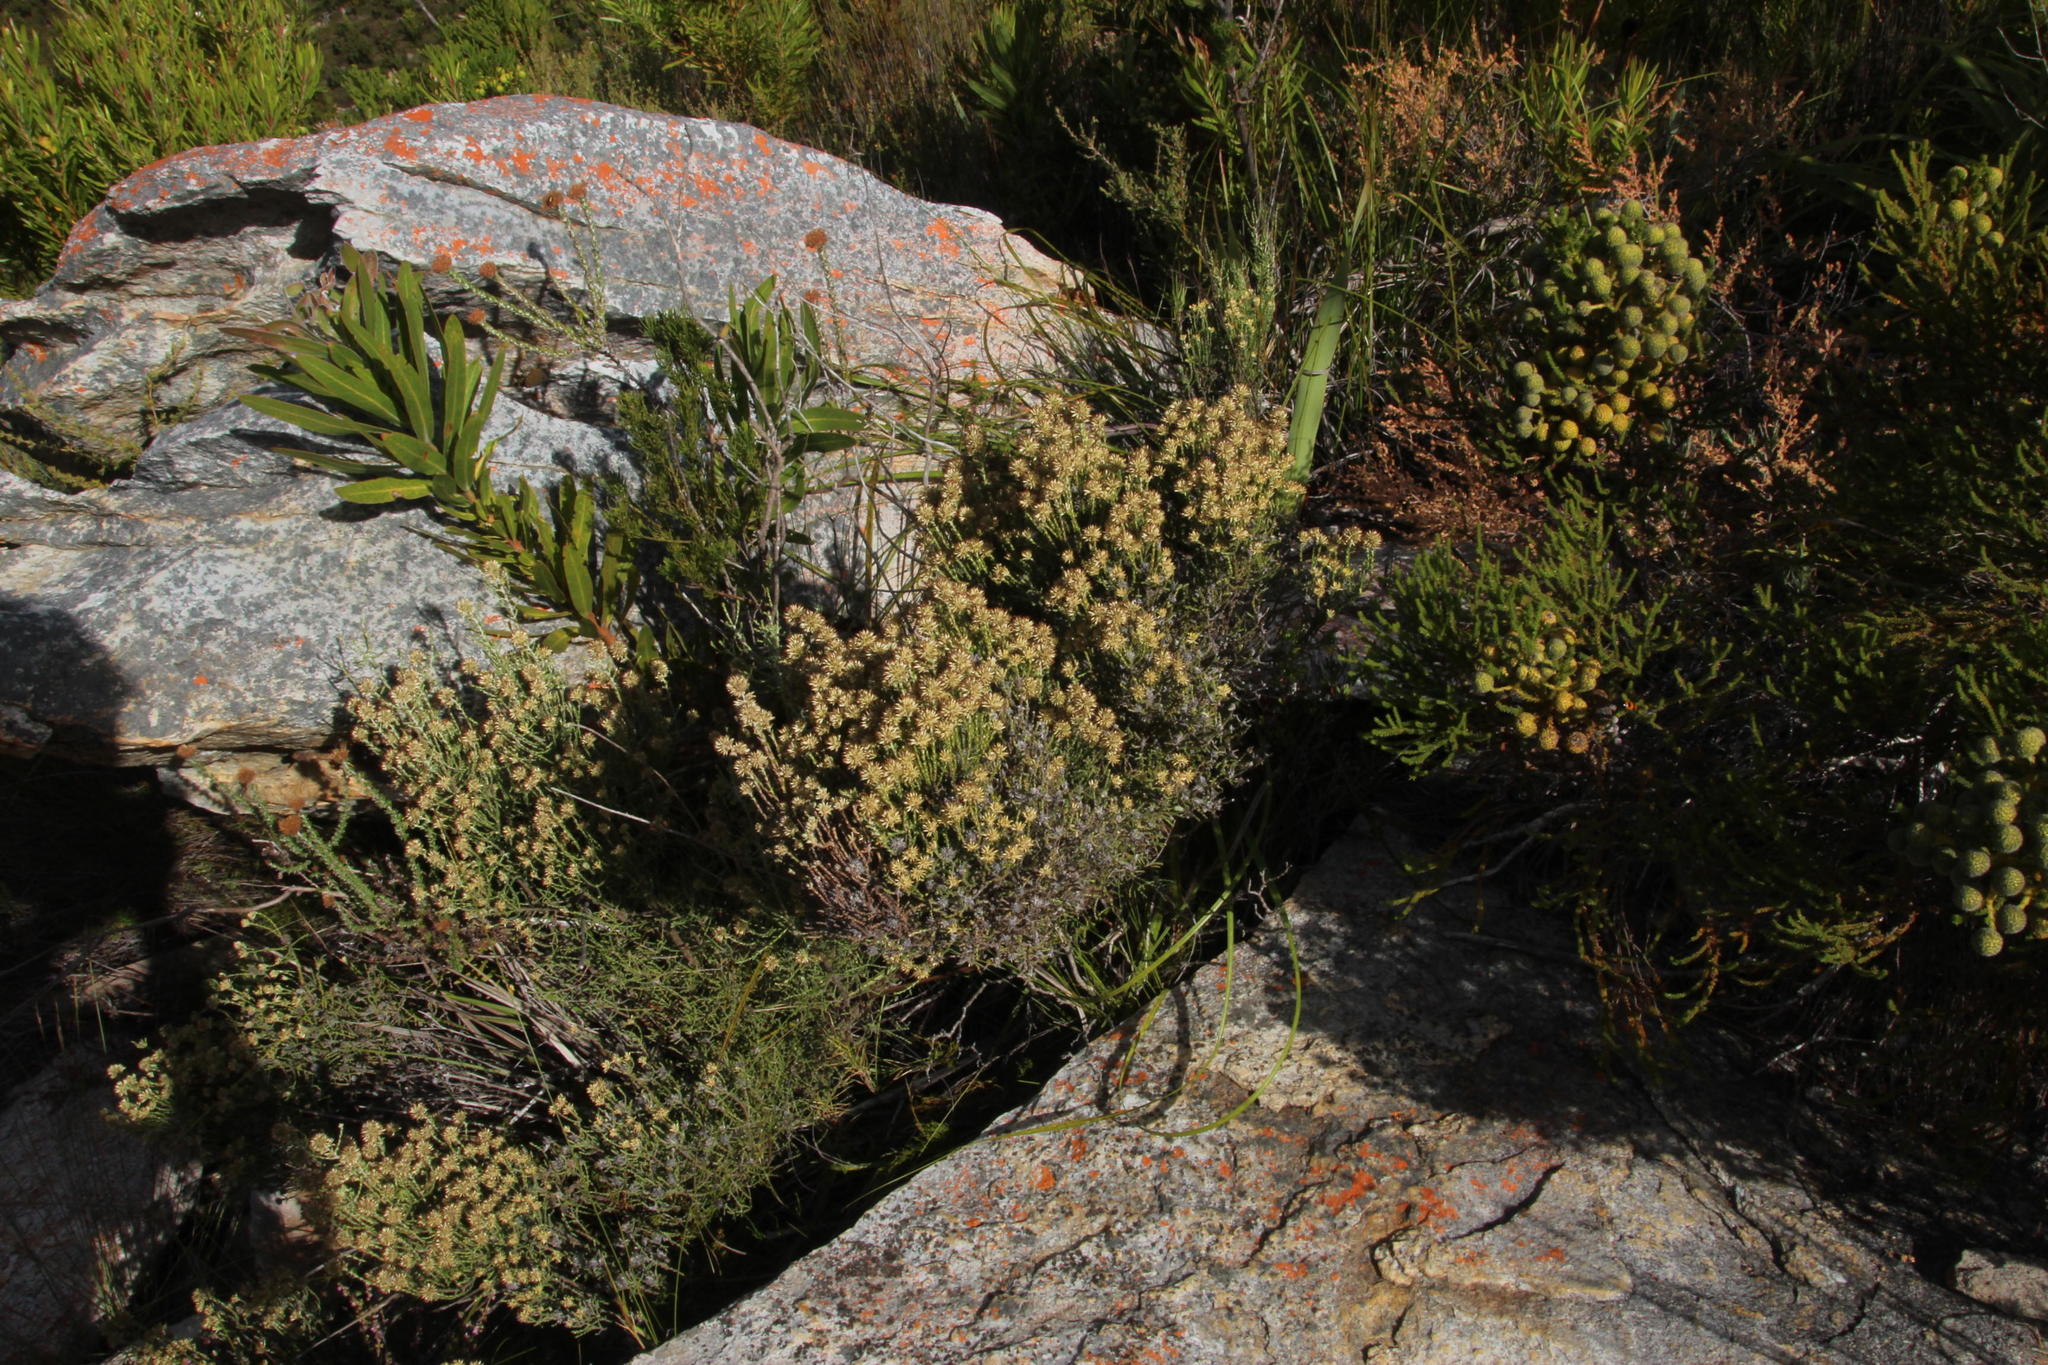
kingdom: Plantae
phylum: Tracheophyta
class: Magnoliopsida
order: Asterales
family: Asteraceae
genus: Stoebe
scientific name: Stoebe microphylla
